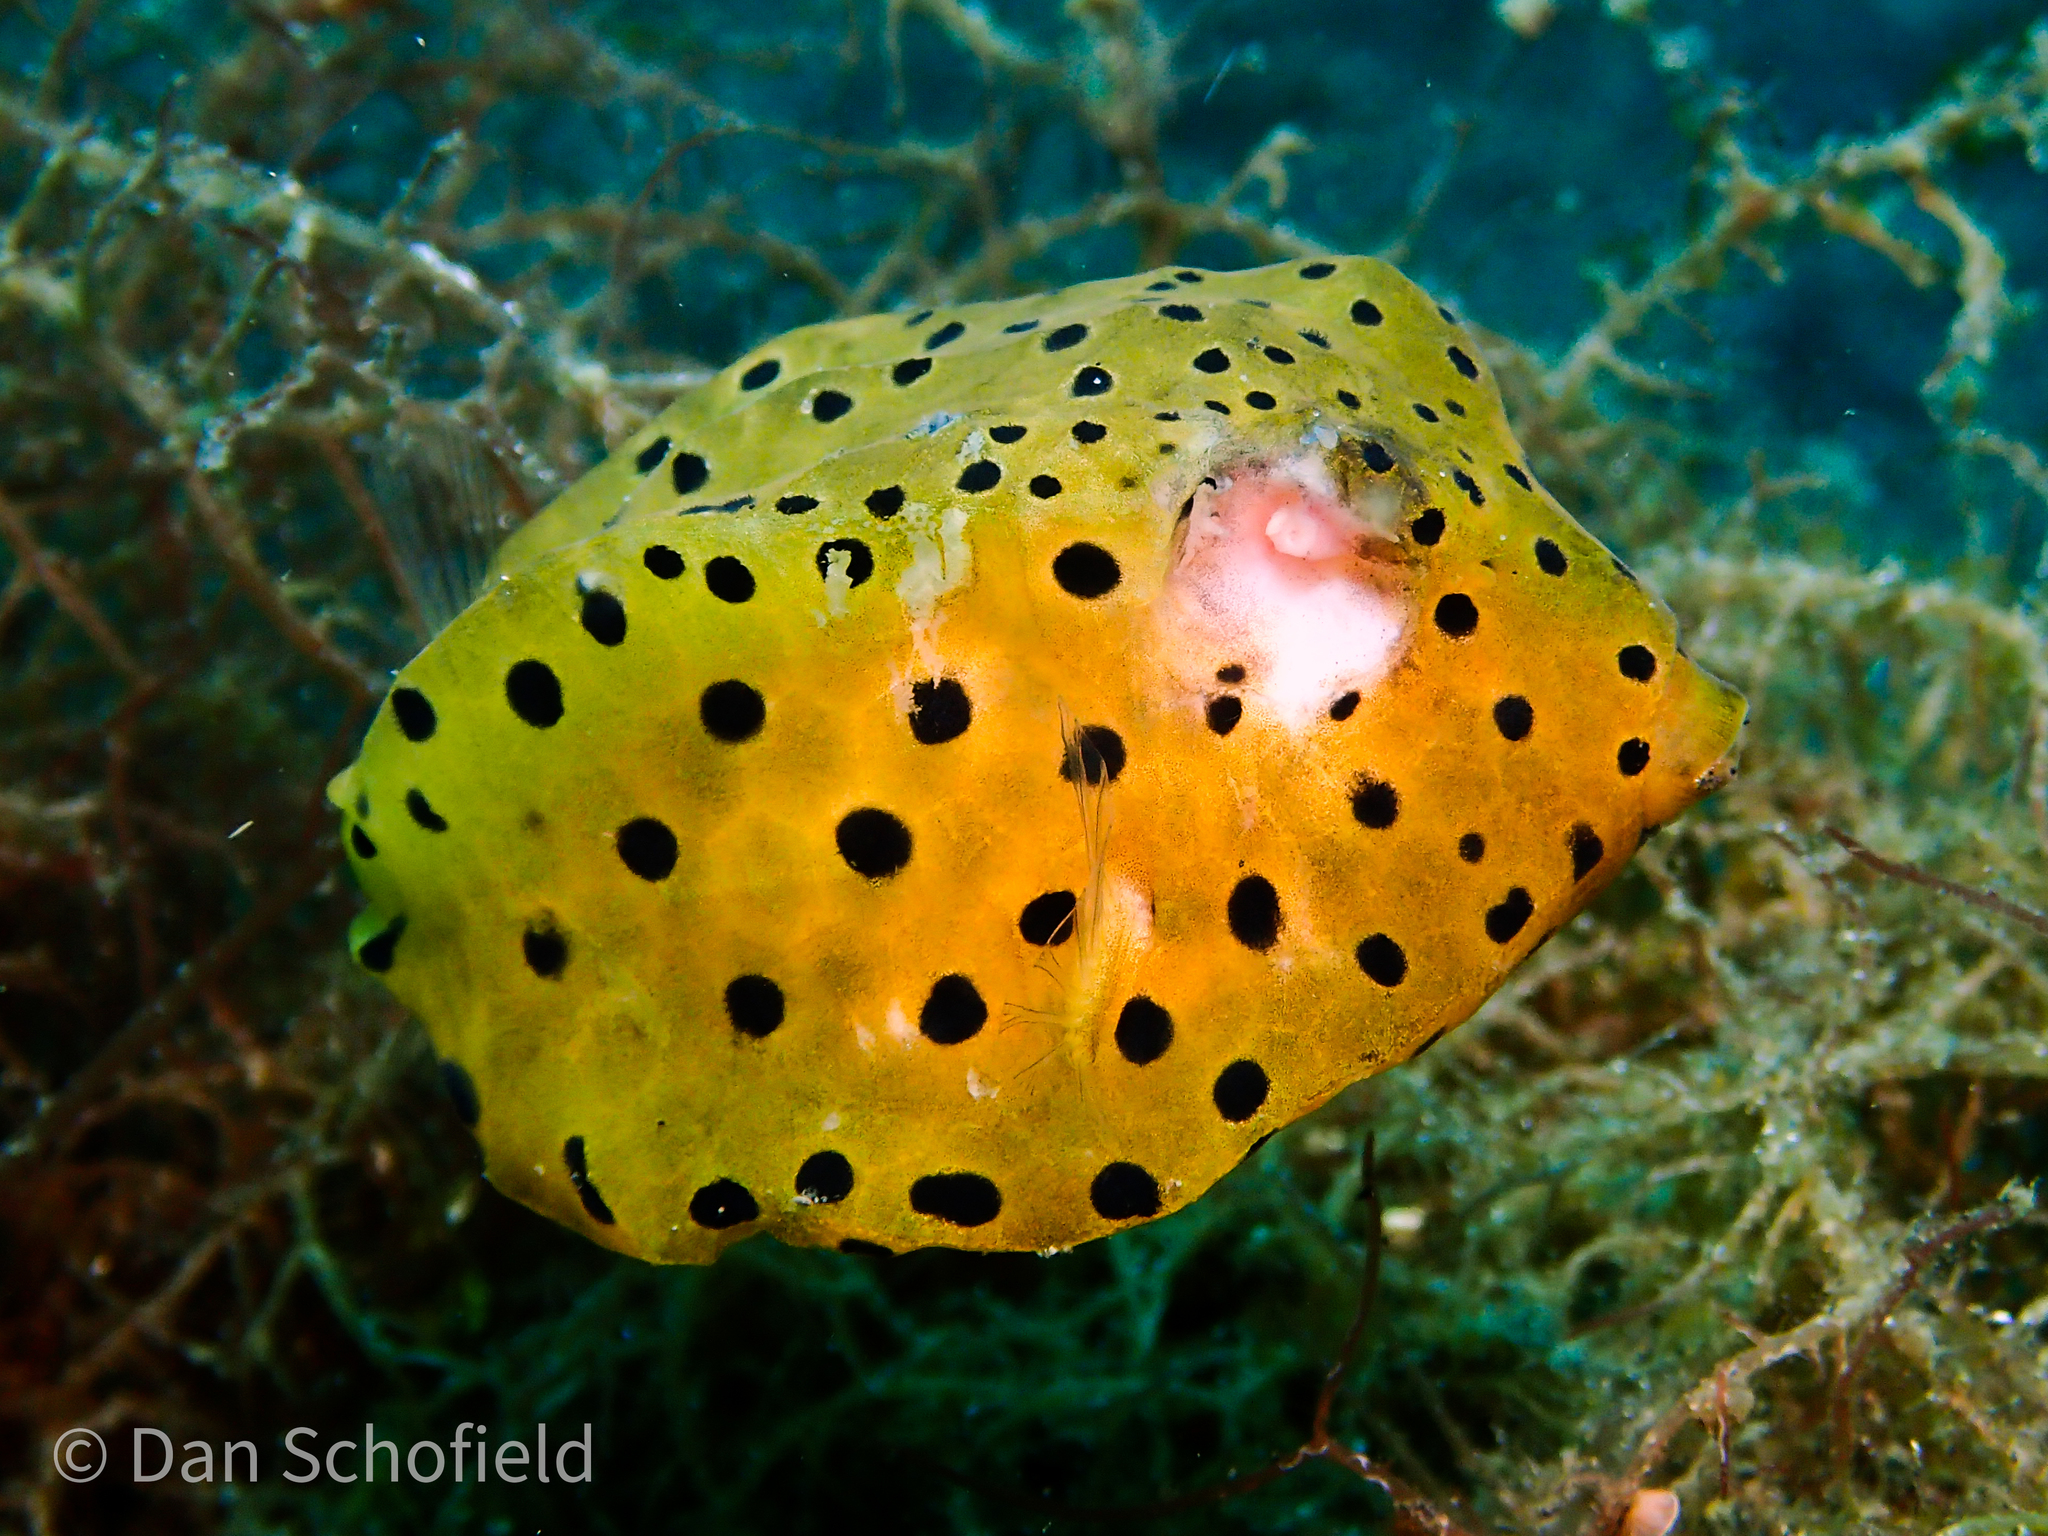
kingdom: Animalia
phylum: Chordata
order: Tetraodontiformes
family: Ostraciidae
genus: Ostracion
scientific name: Ostracion cubicus
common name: Cube trunkfish
